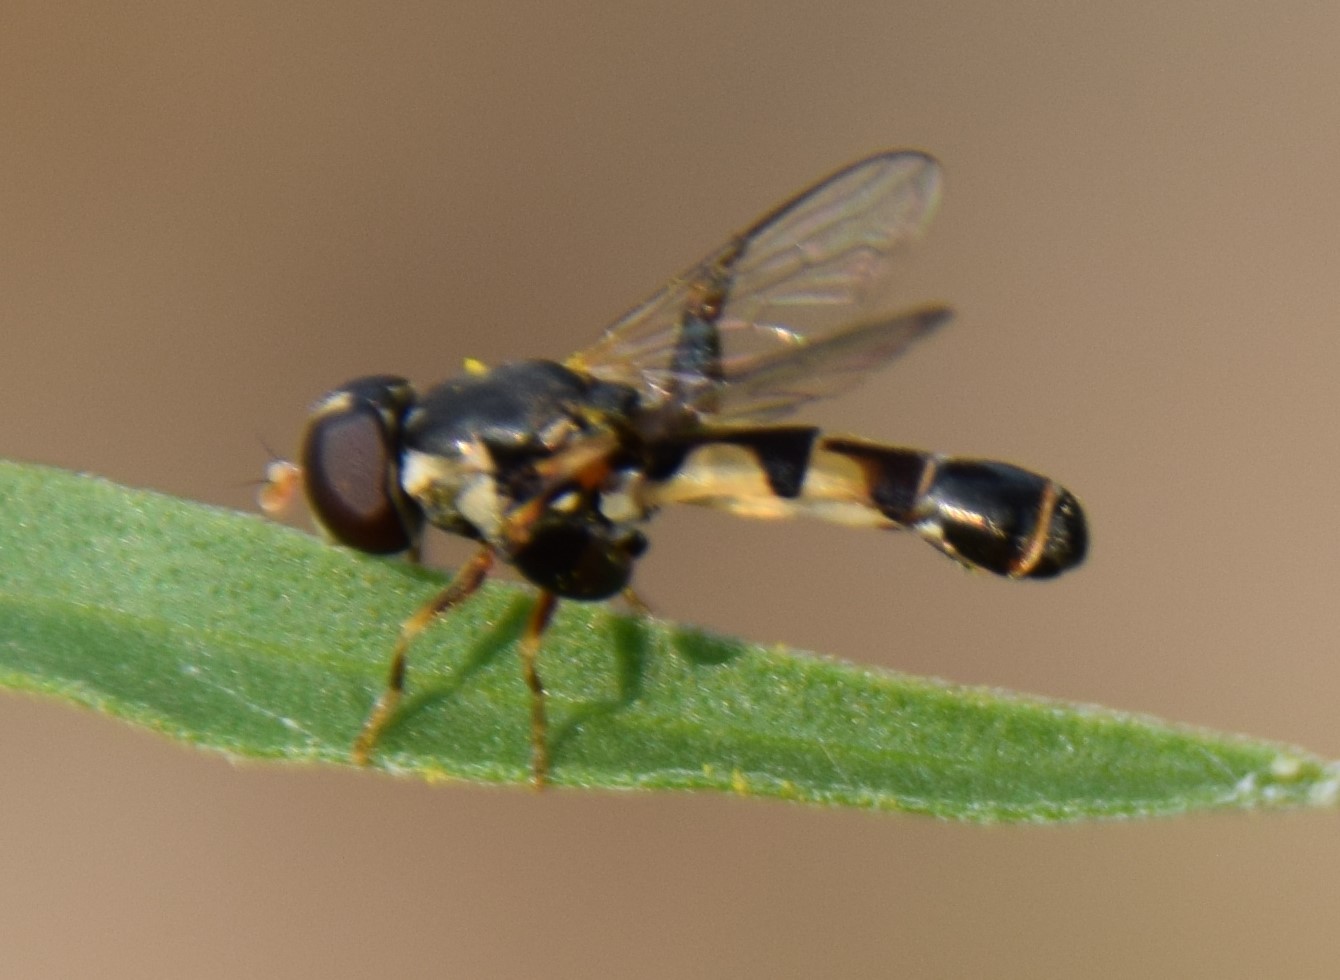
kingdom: Animalia
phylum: Arthropoda
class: Insecta
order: Diptera
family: Syrphidae
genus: Syritta
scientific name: Syritta pipiens
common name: Hover fly
